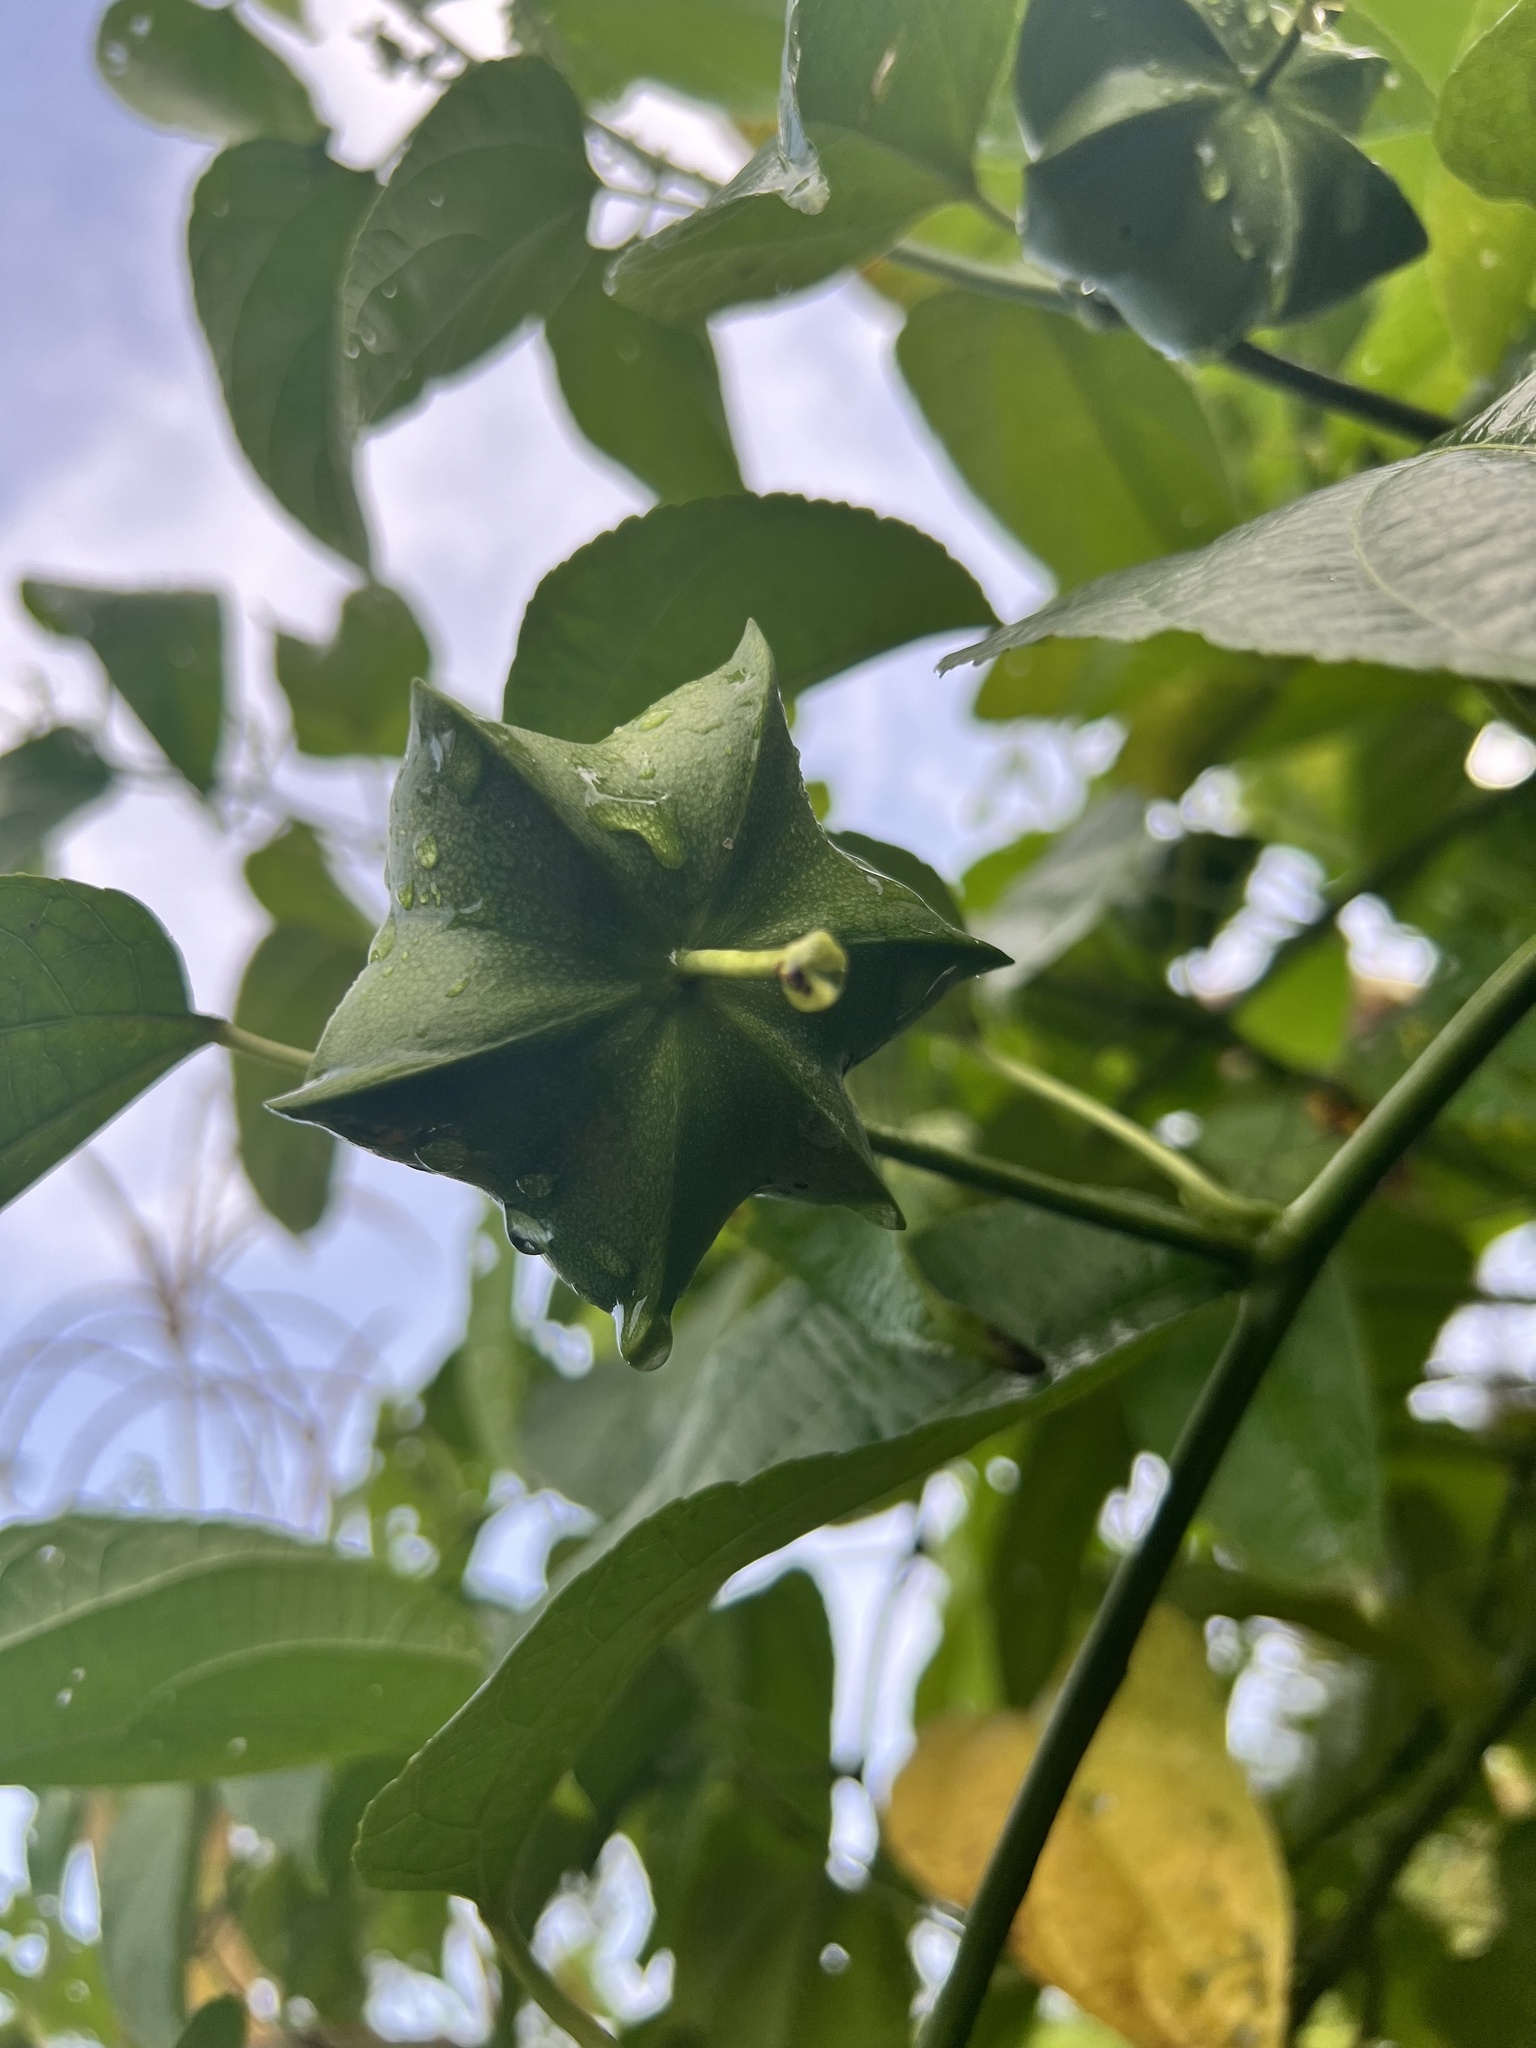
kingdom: Plantae
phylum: Tracheophyta
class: Magnoliopsida
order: Malpighiales
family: Euphorbiaceae
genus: Plukenetia
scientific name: Plukenetia volubilis
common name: Inca-peanut
